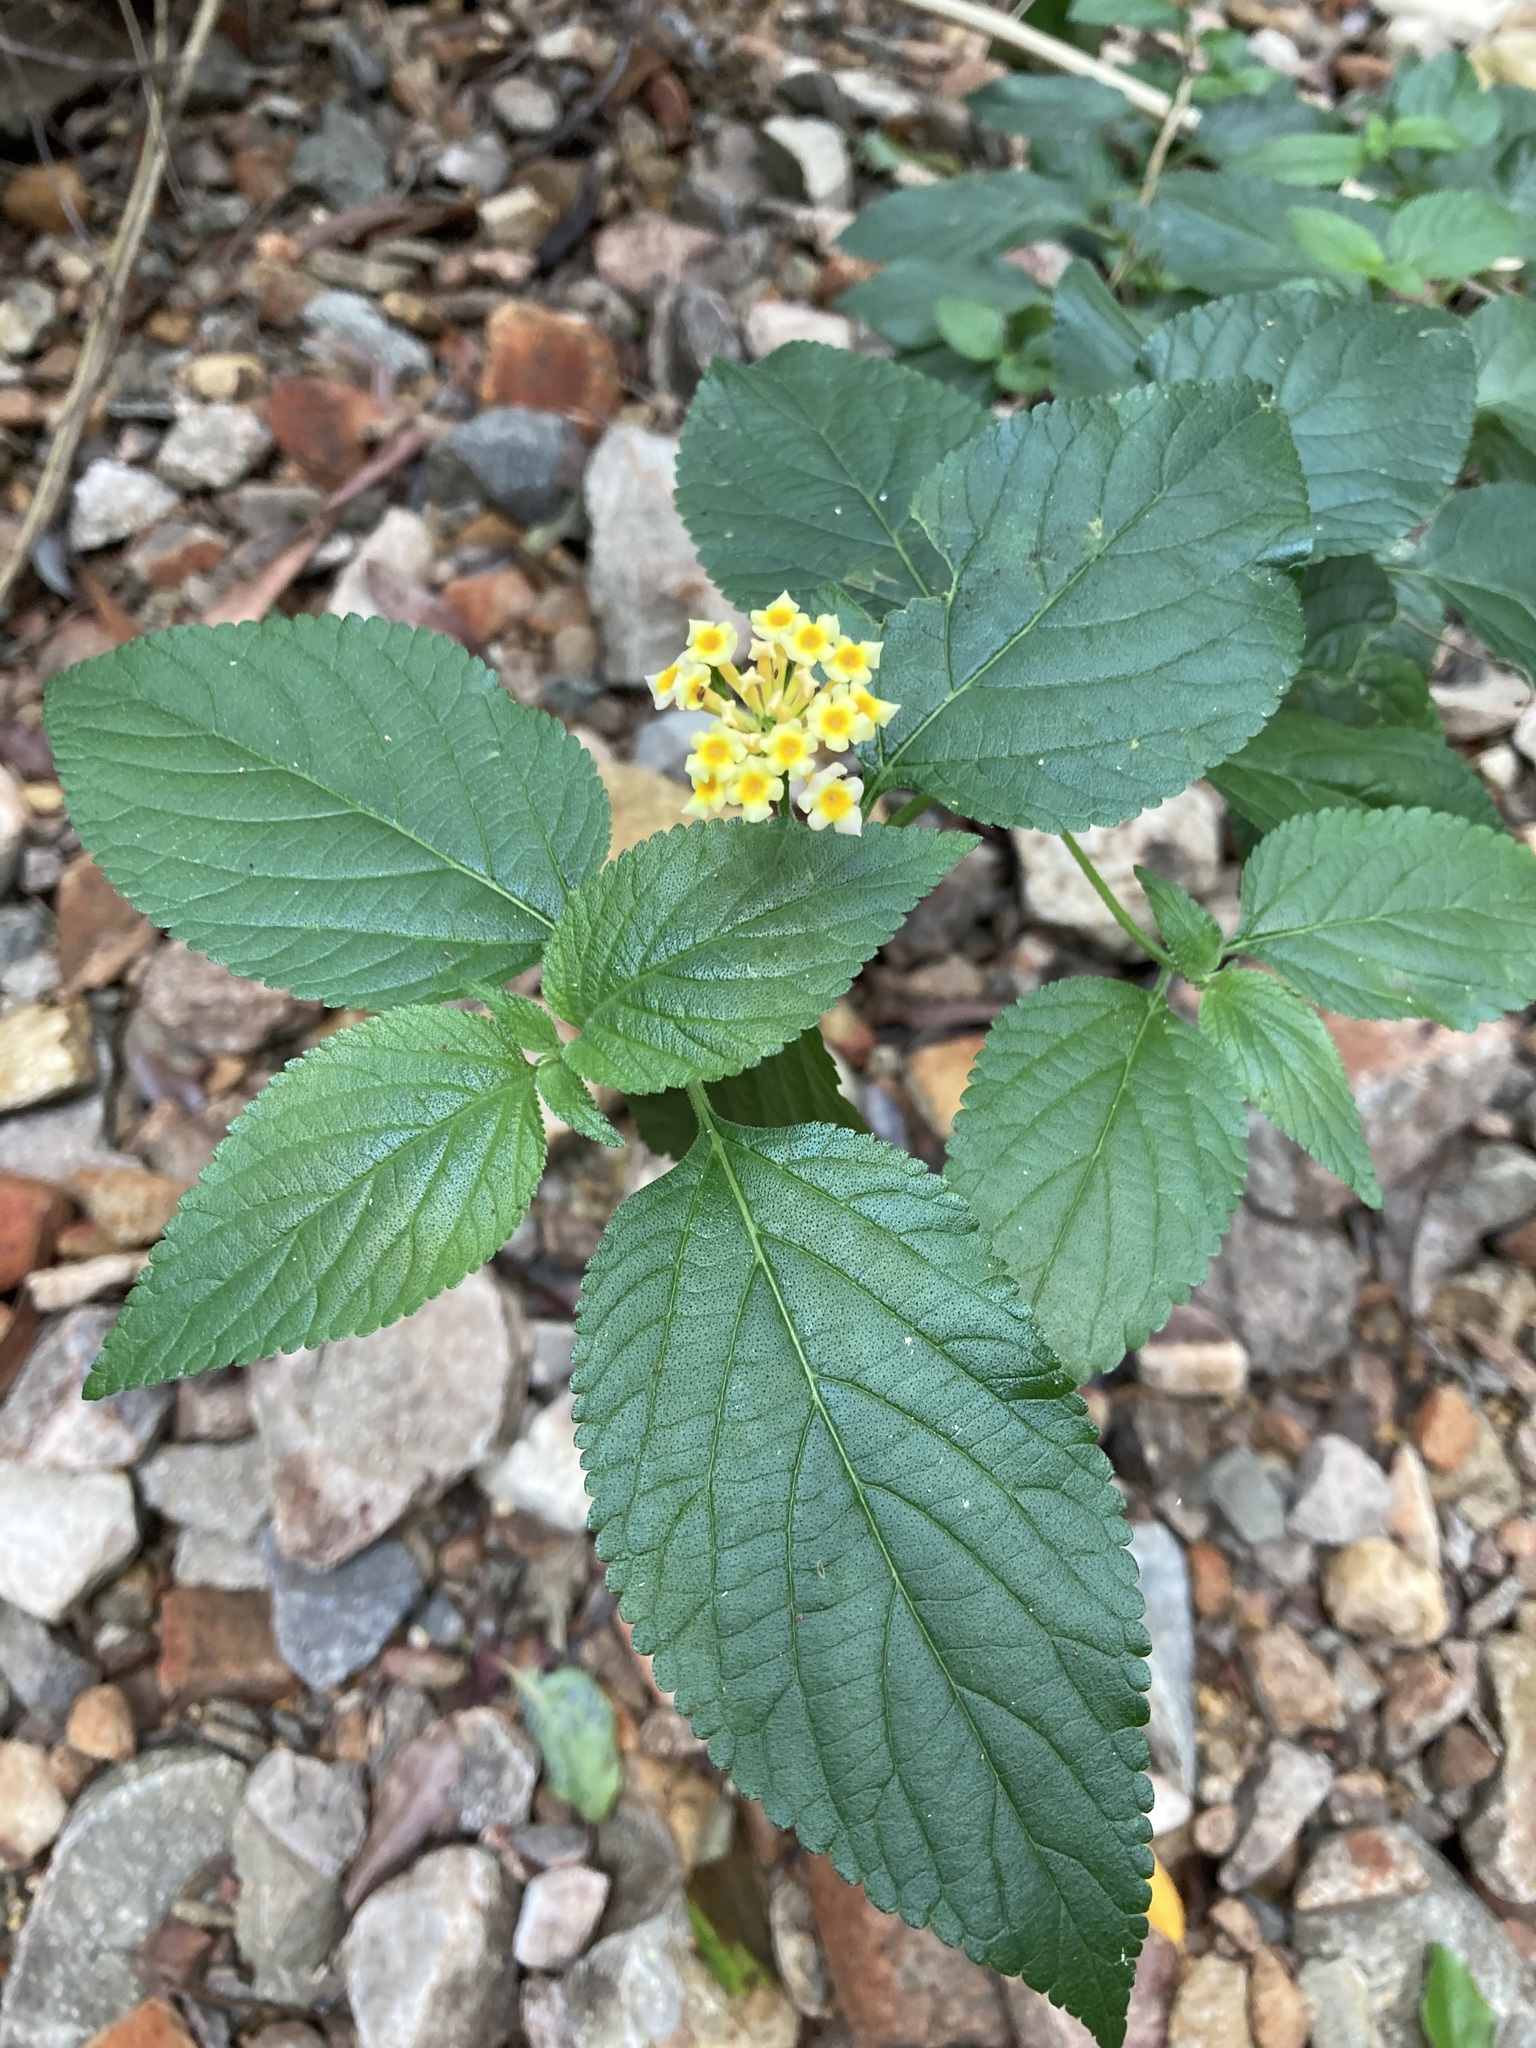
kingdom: Plantae
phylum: Tracheophyta
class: Magnoliopsida
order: Lamiales
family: Verbenaceae
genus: Lantana
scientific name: Lantana camara
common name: Lantana
